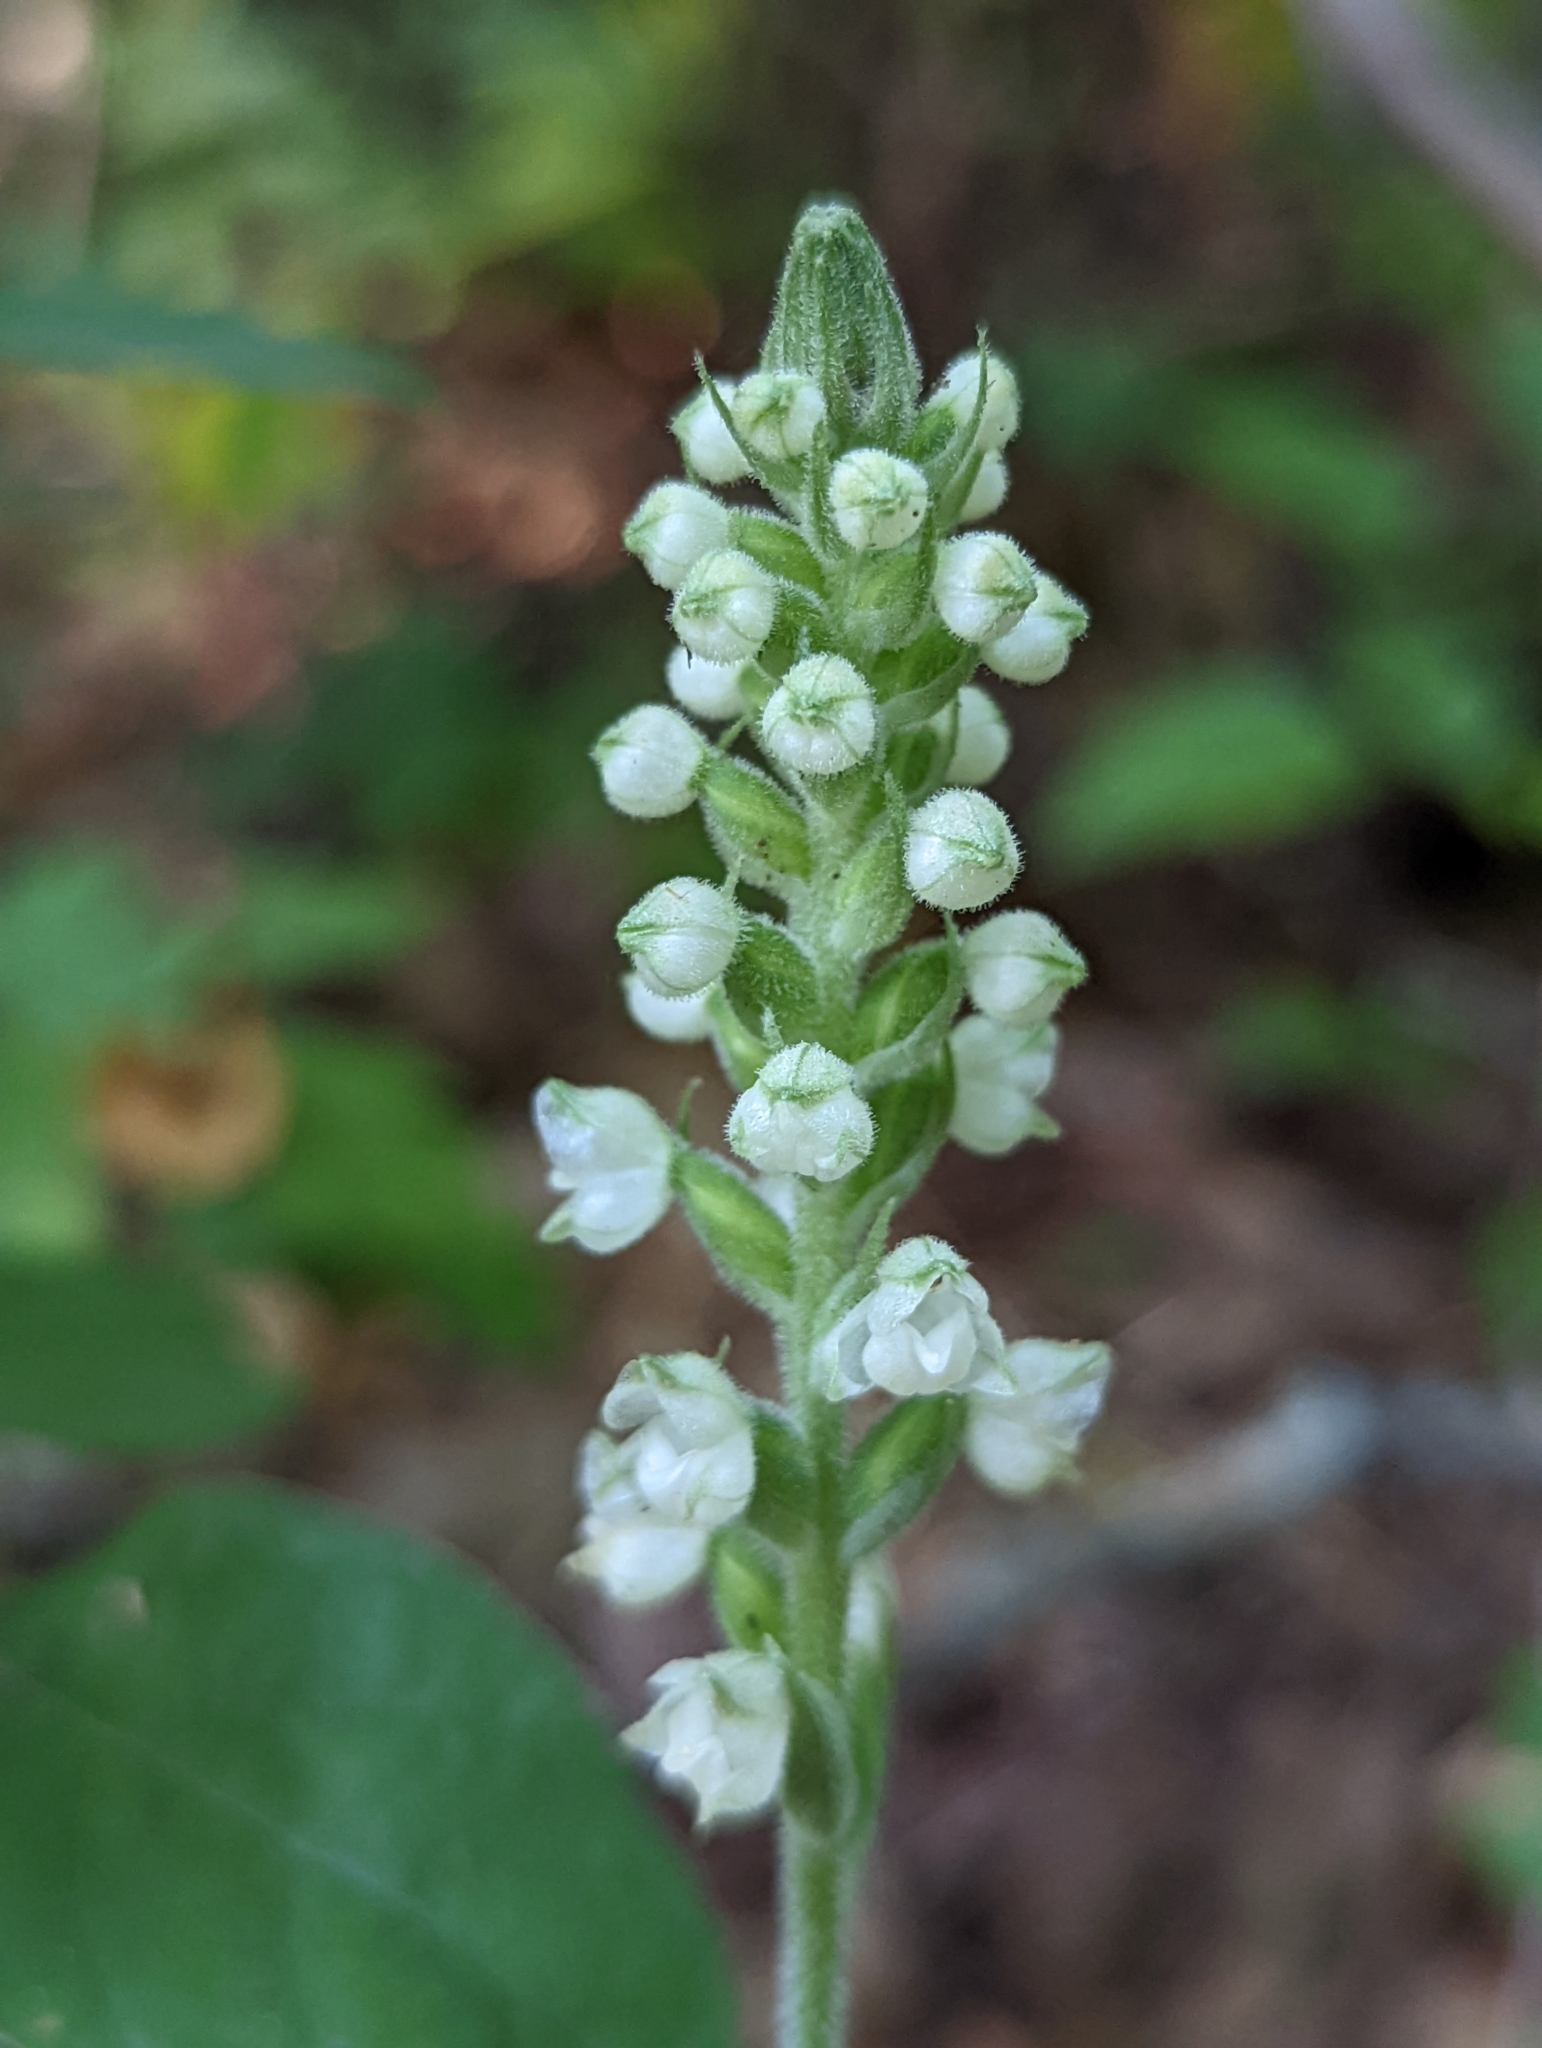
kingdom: Plantae
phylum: Tracheophyta
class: Liliopsida
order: Asparagales
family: Orchidaceae
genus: Goodyera
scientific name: Goodyera pubescens
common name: Downy rattlesnake-plantain
